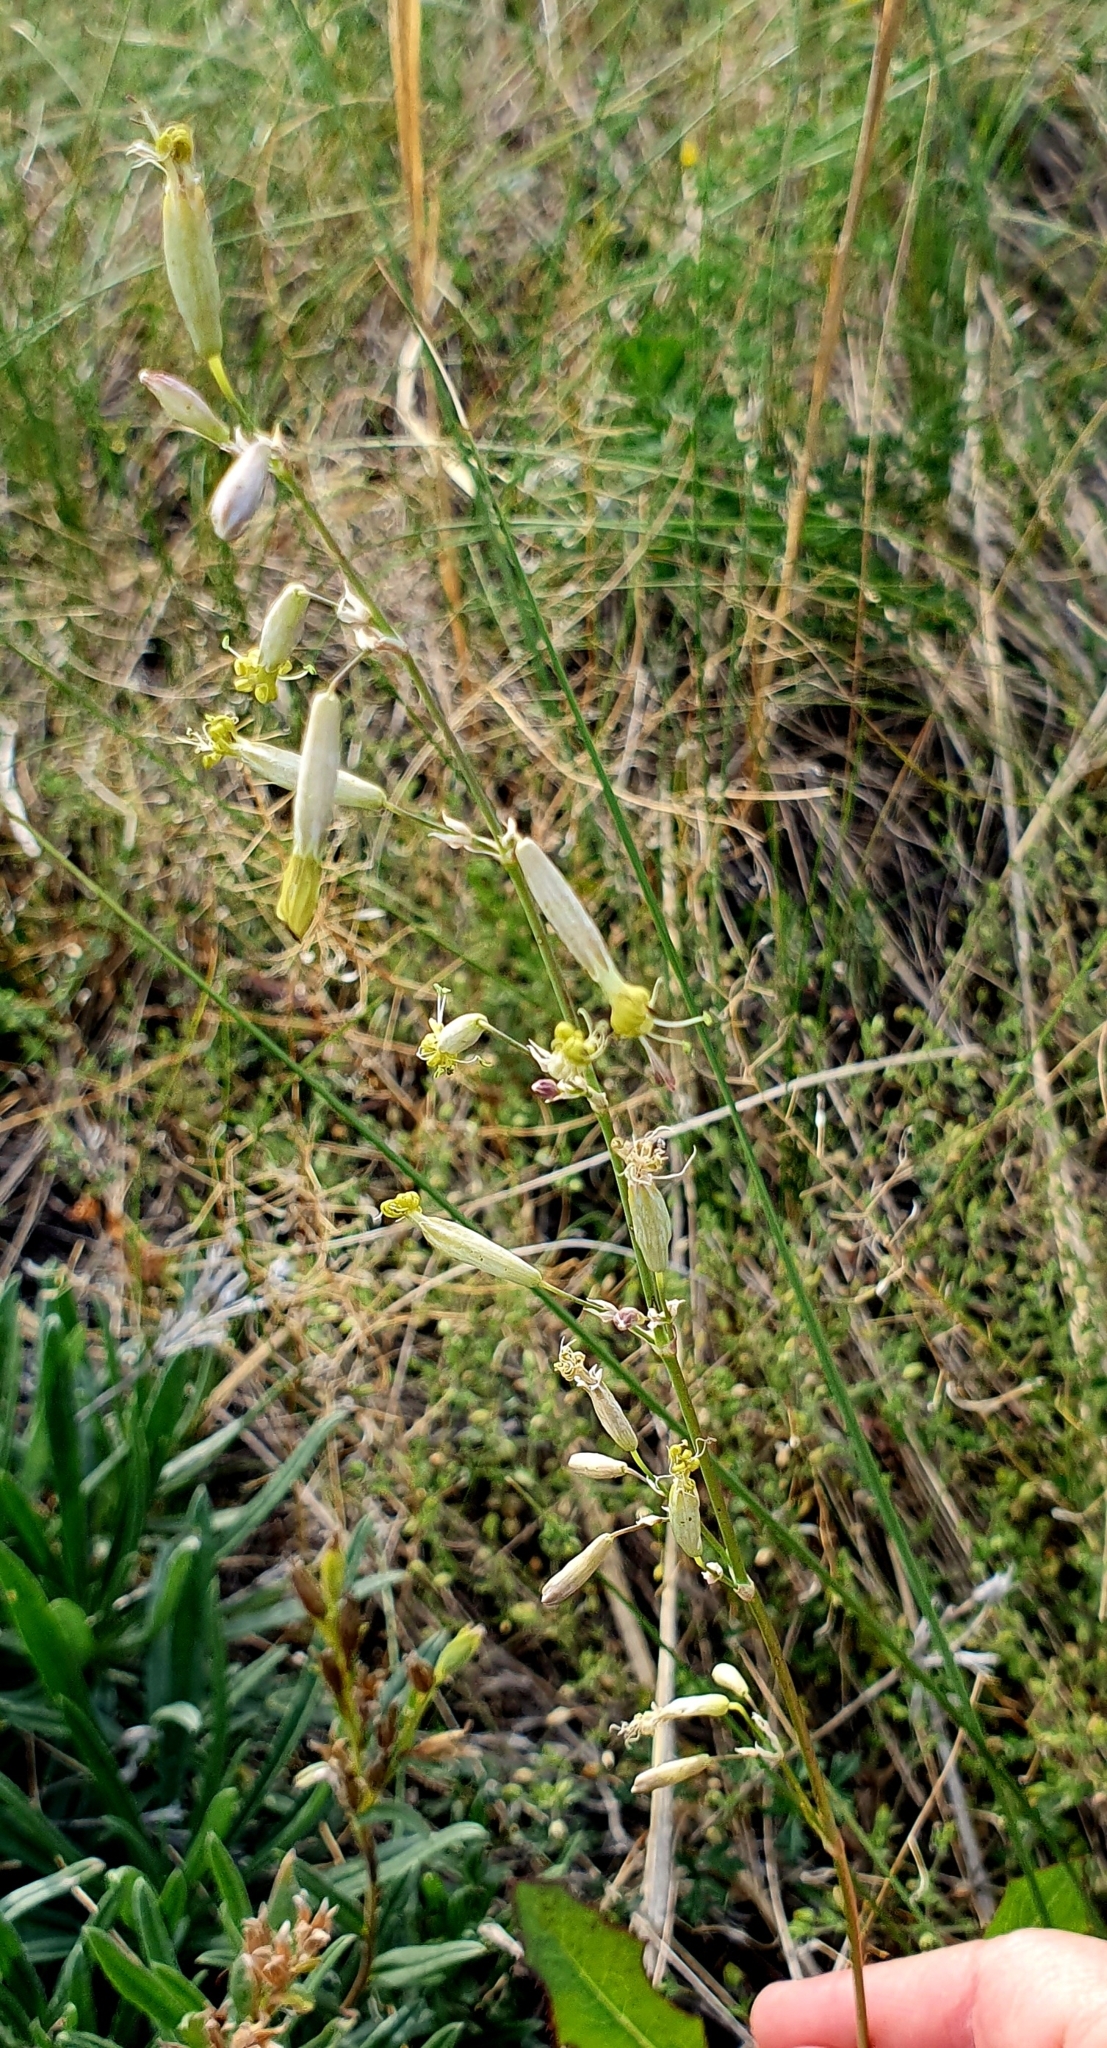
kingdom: Plantae
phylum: Tracheophyta
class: Magnoliopsida
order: Caryophyllales
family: Caryophyllaceae
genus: Silene
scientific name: Silene chlorantha
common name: Yellowgreen catchfly
